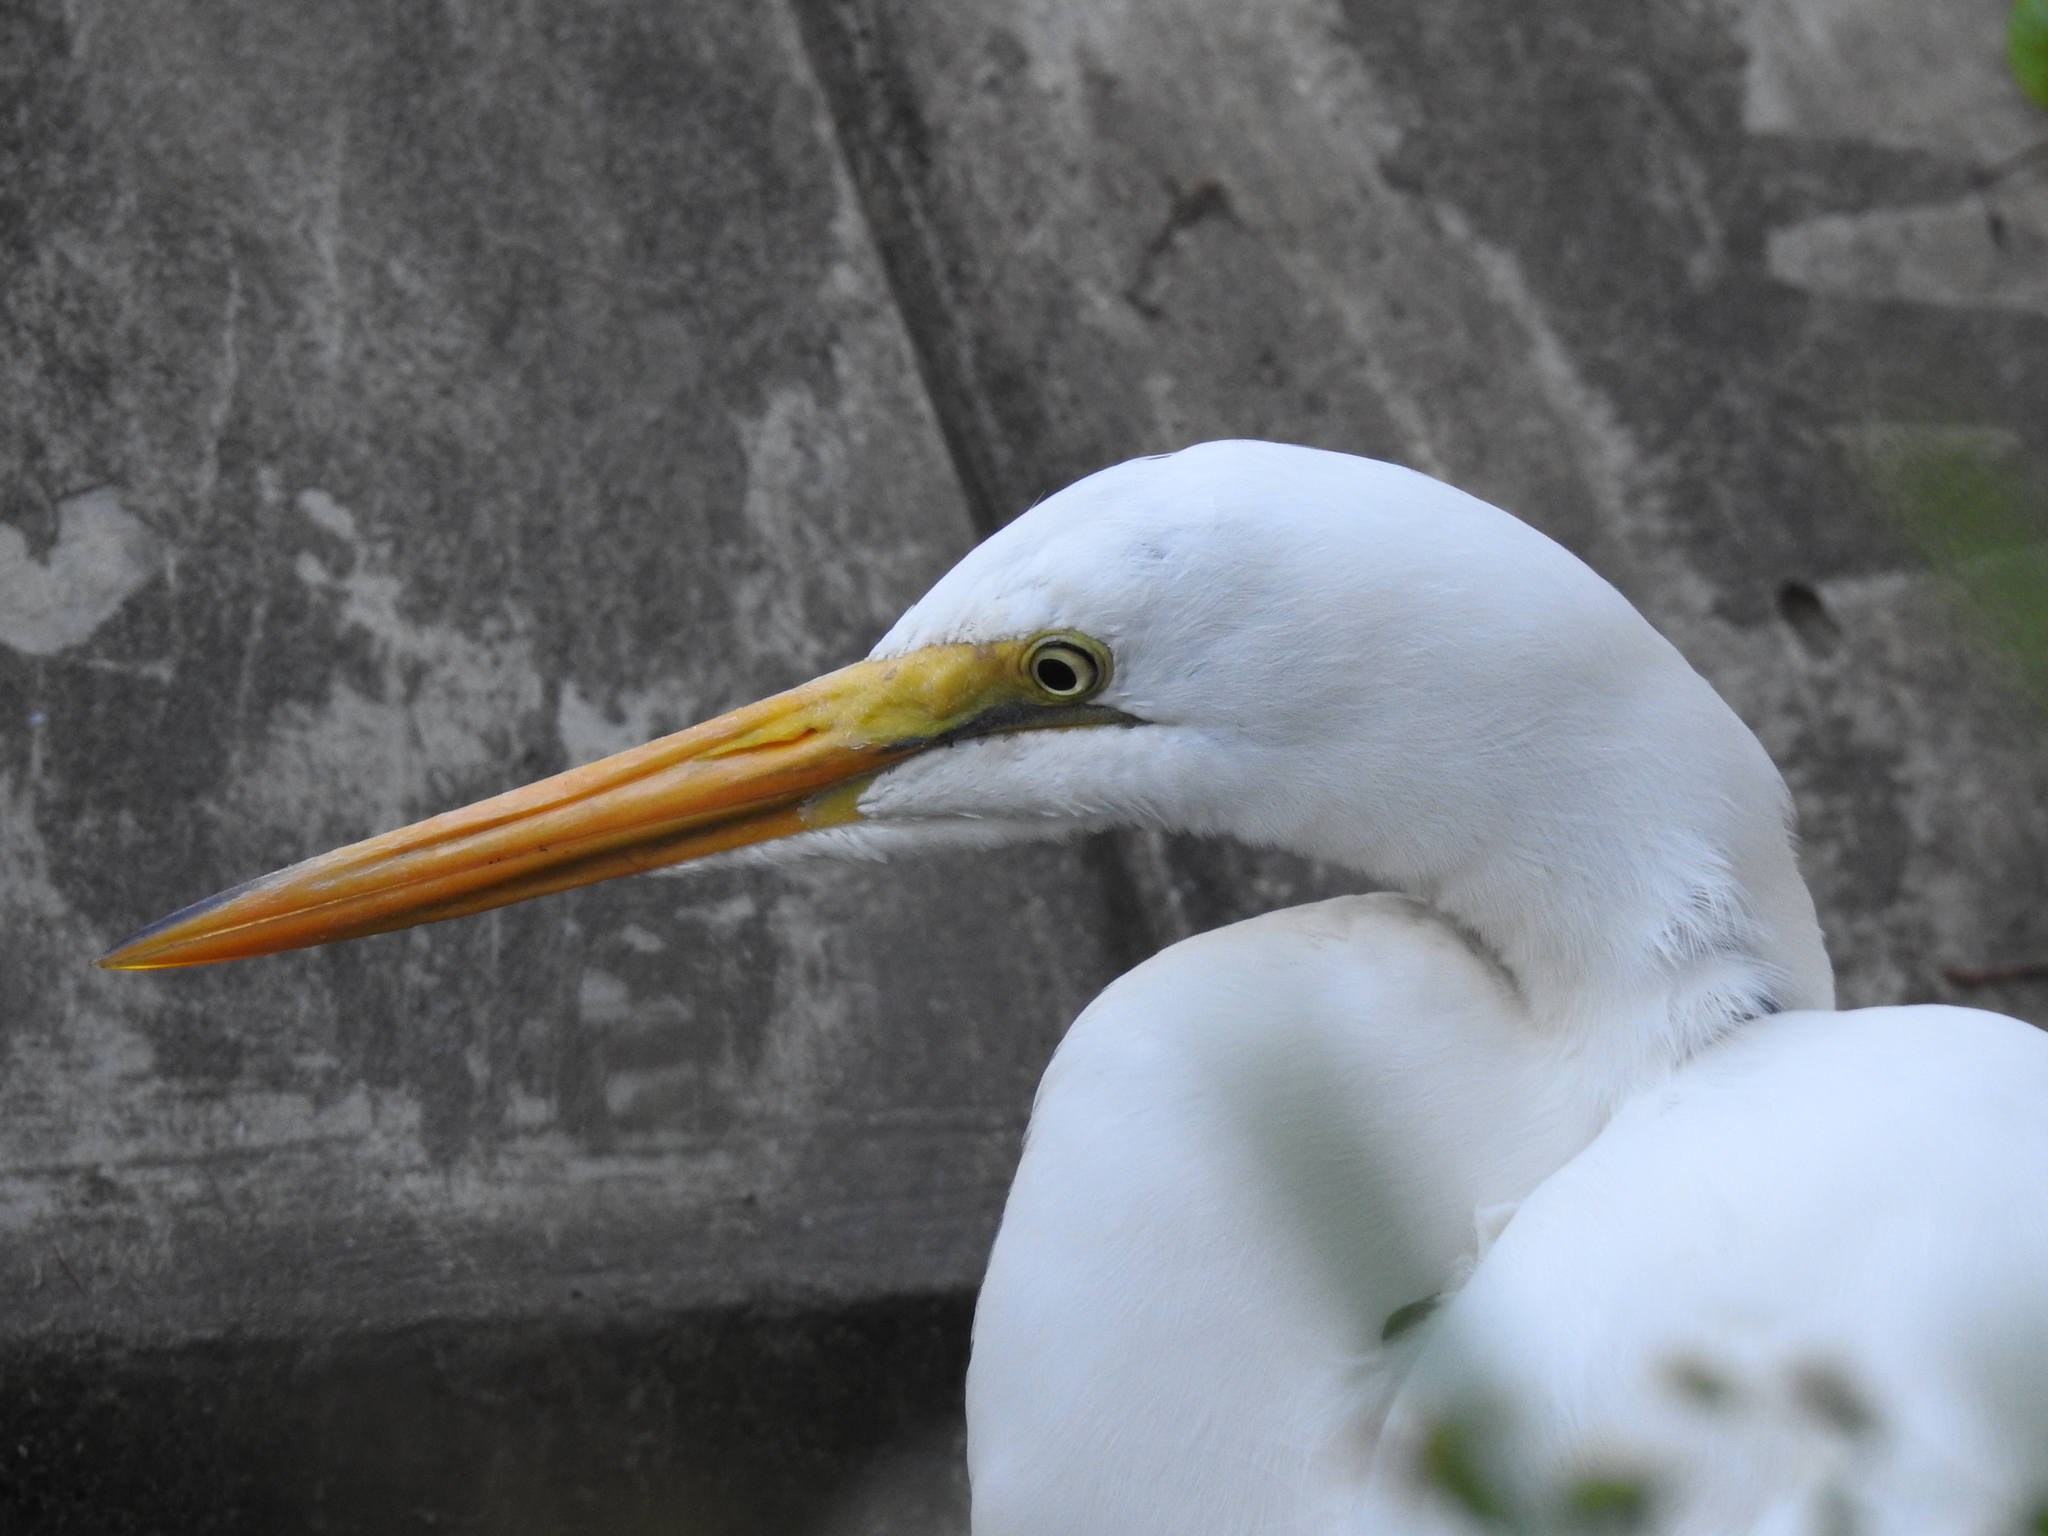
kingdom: Animalia
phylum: Chordata
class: Aves
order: Pelecaniformes
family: Ardeidae
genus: Ardea
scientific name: Ardea alba
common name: Great egret
